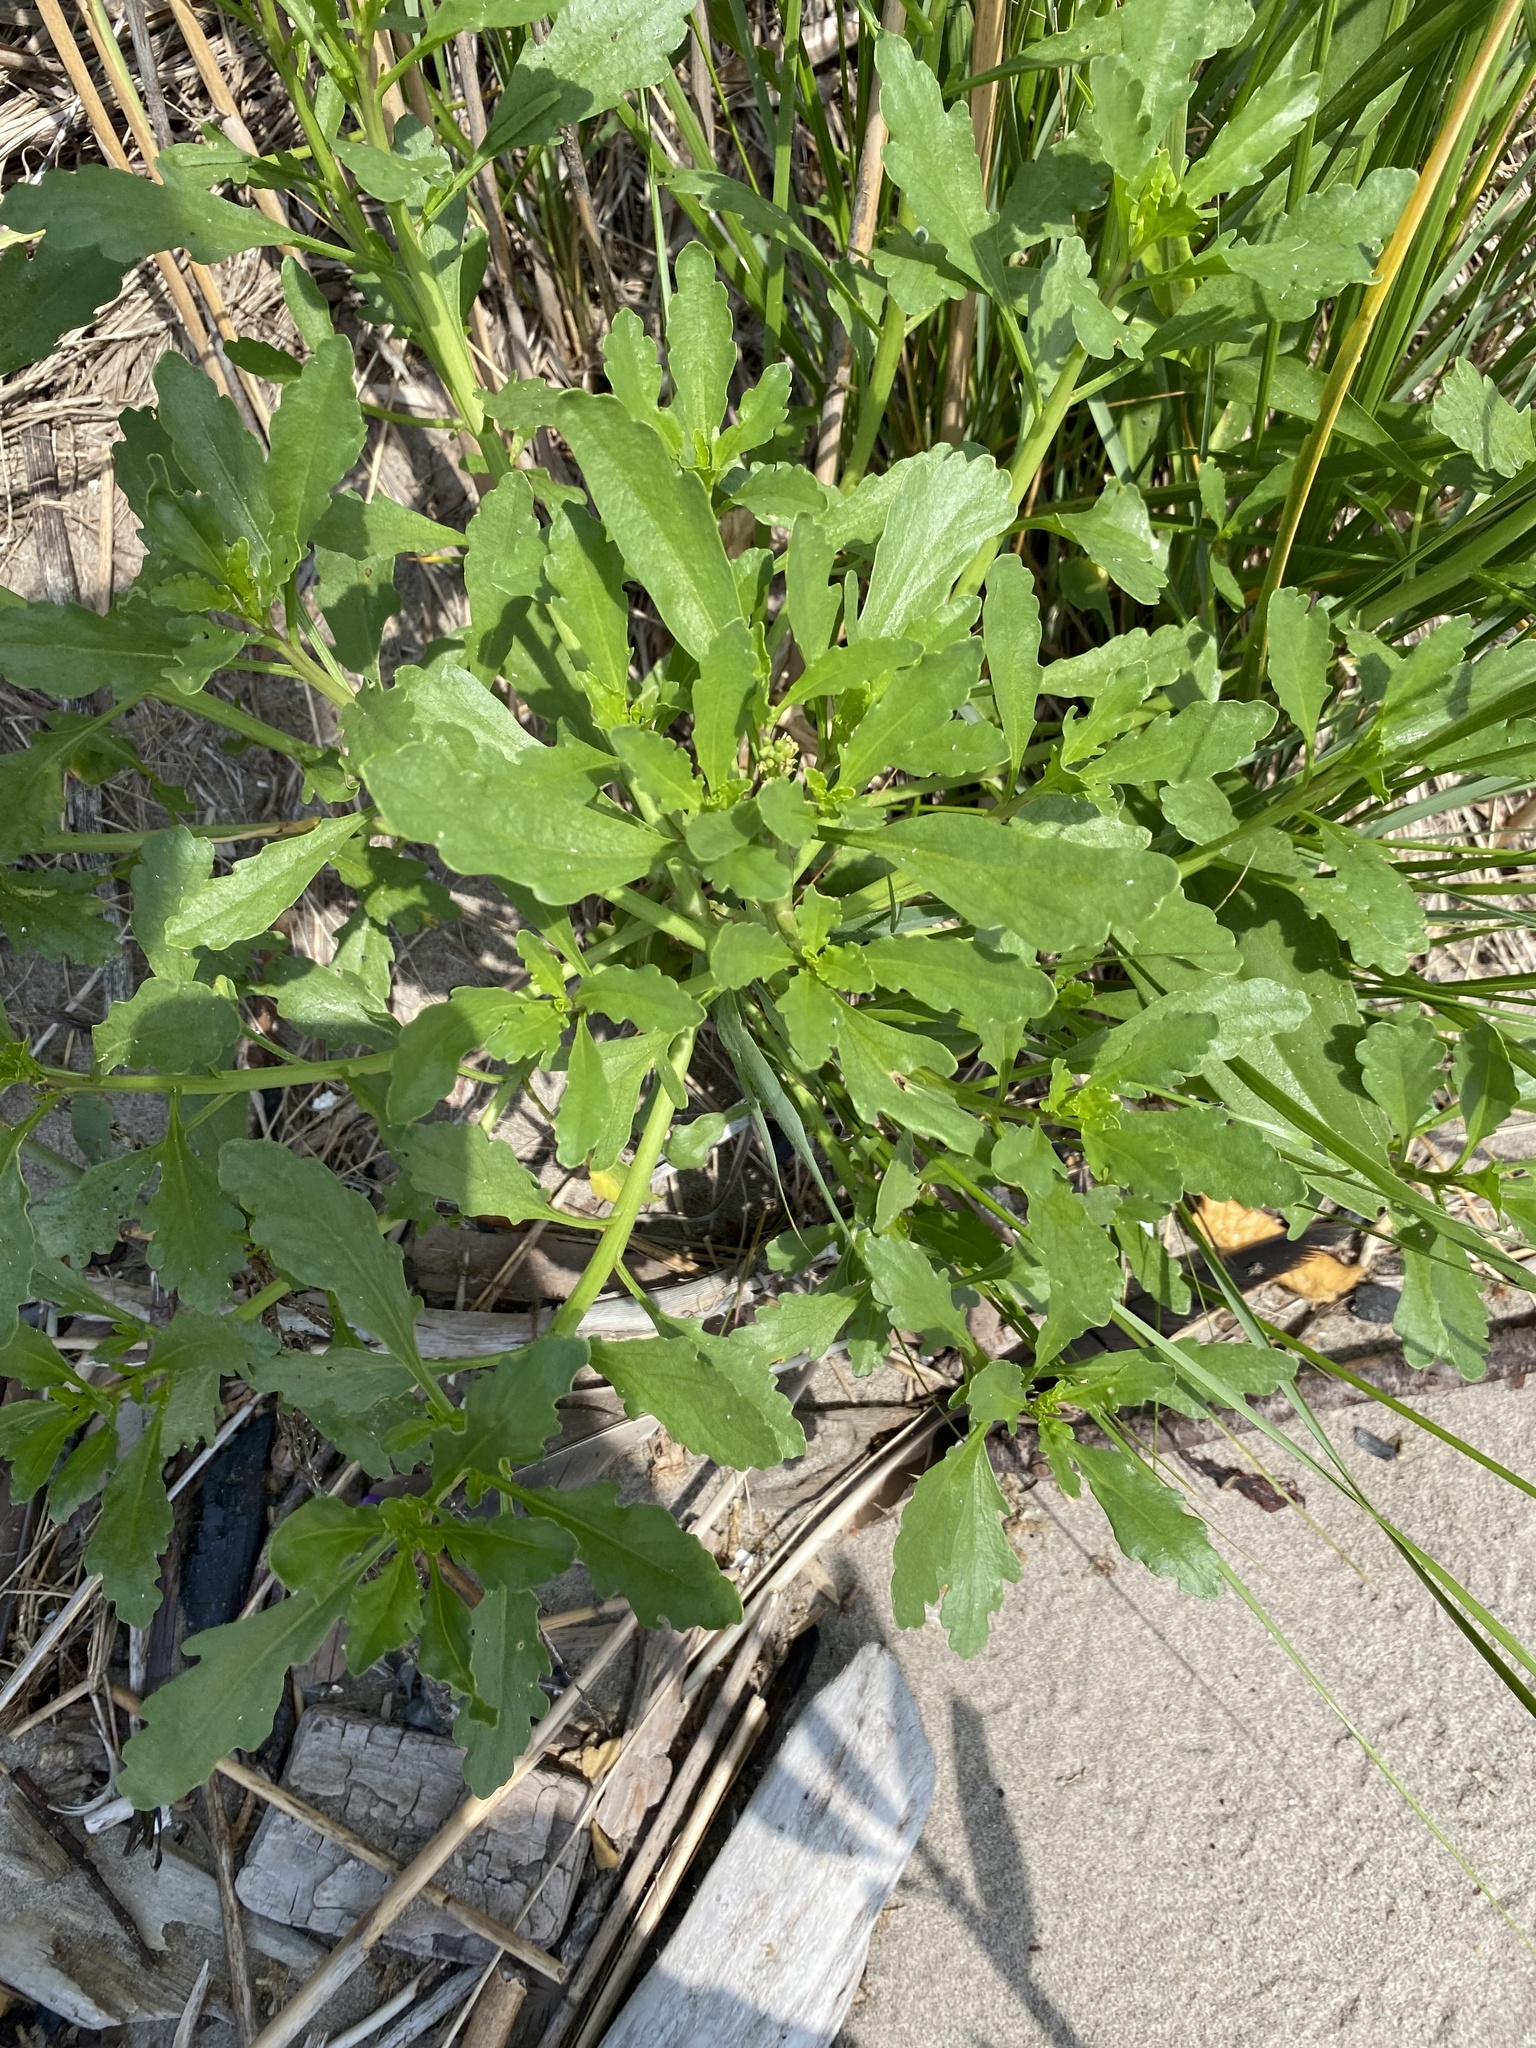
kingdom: Plantae
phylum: Tracheophyta
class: Magnoliopsida
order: Brassicales
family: Brassicaceae
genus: Cakile
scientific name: Cakile edentula
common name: American sea rocket
